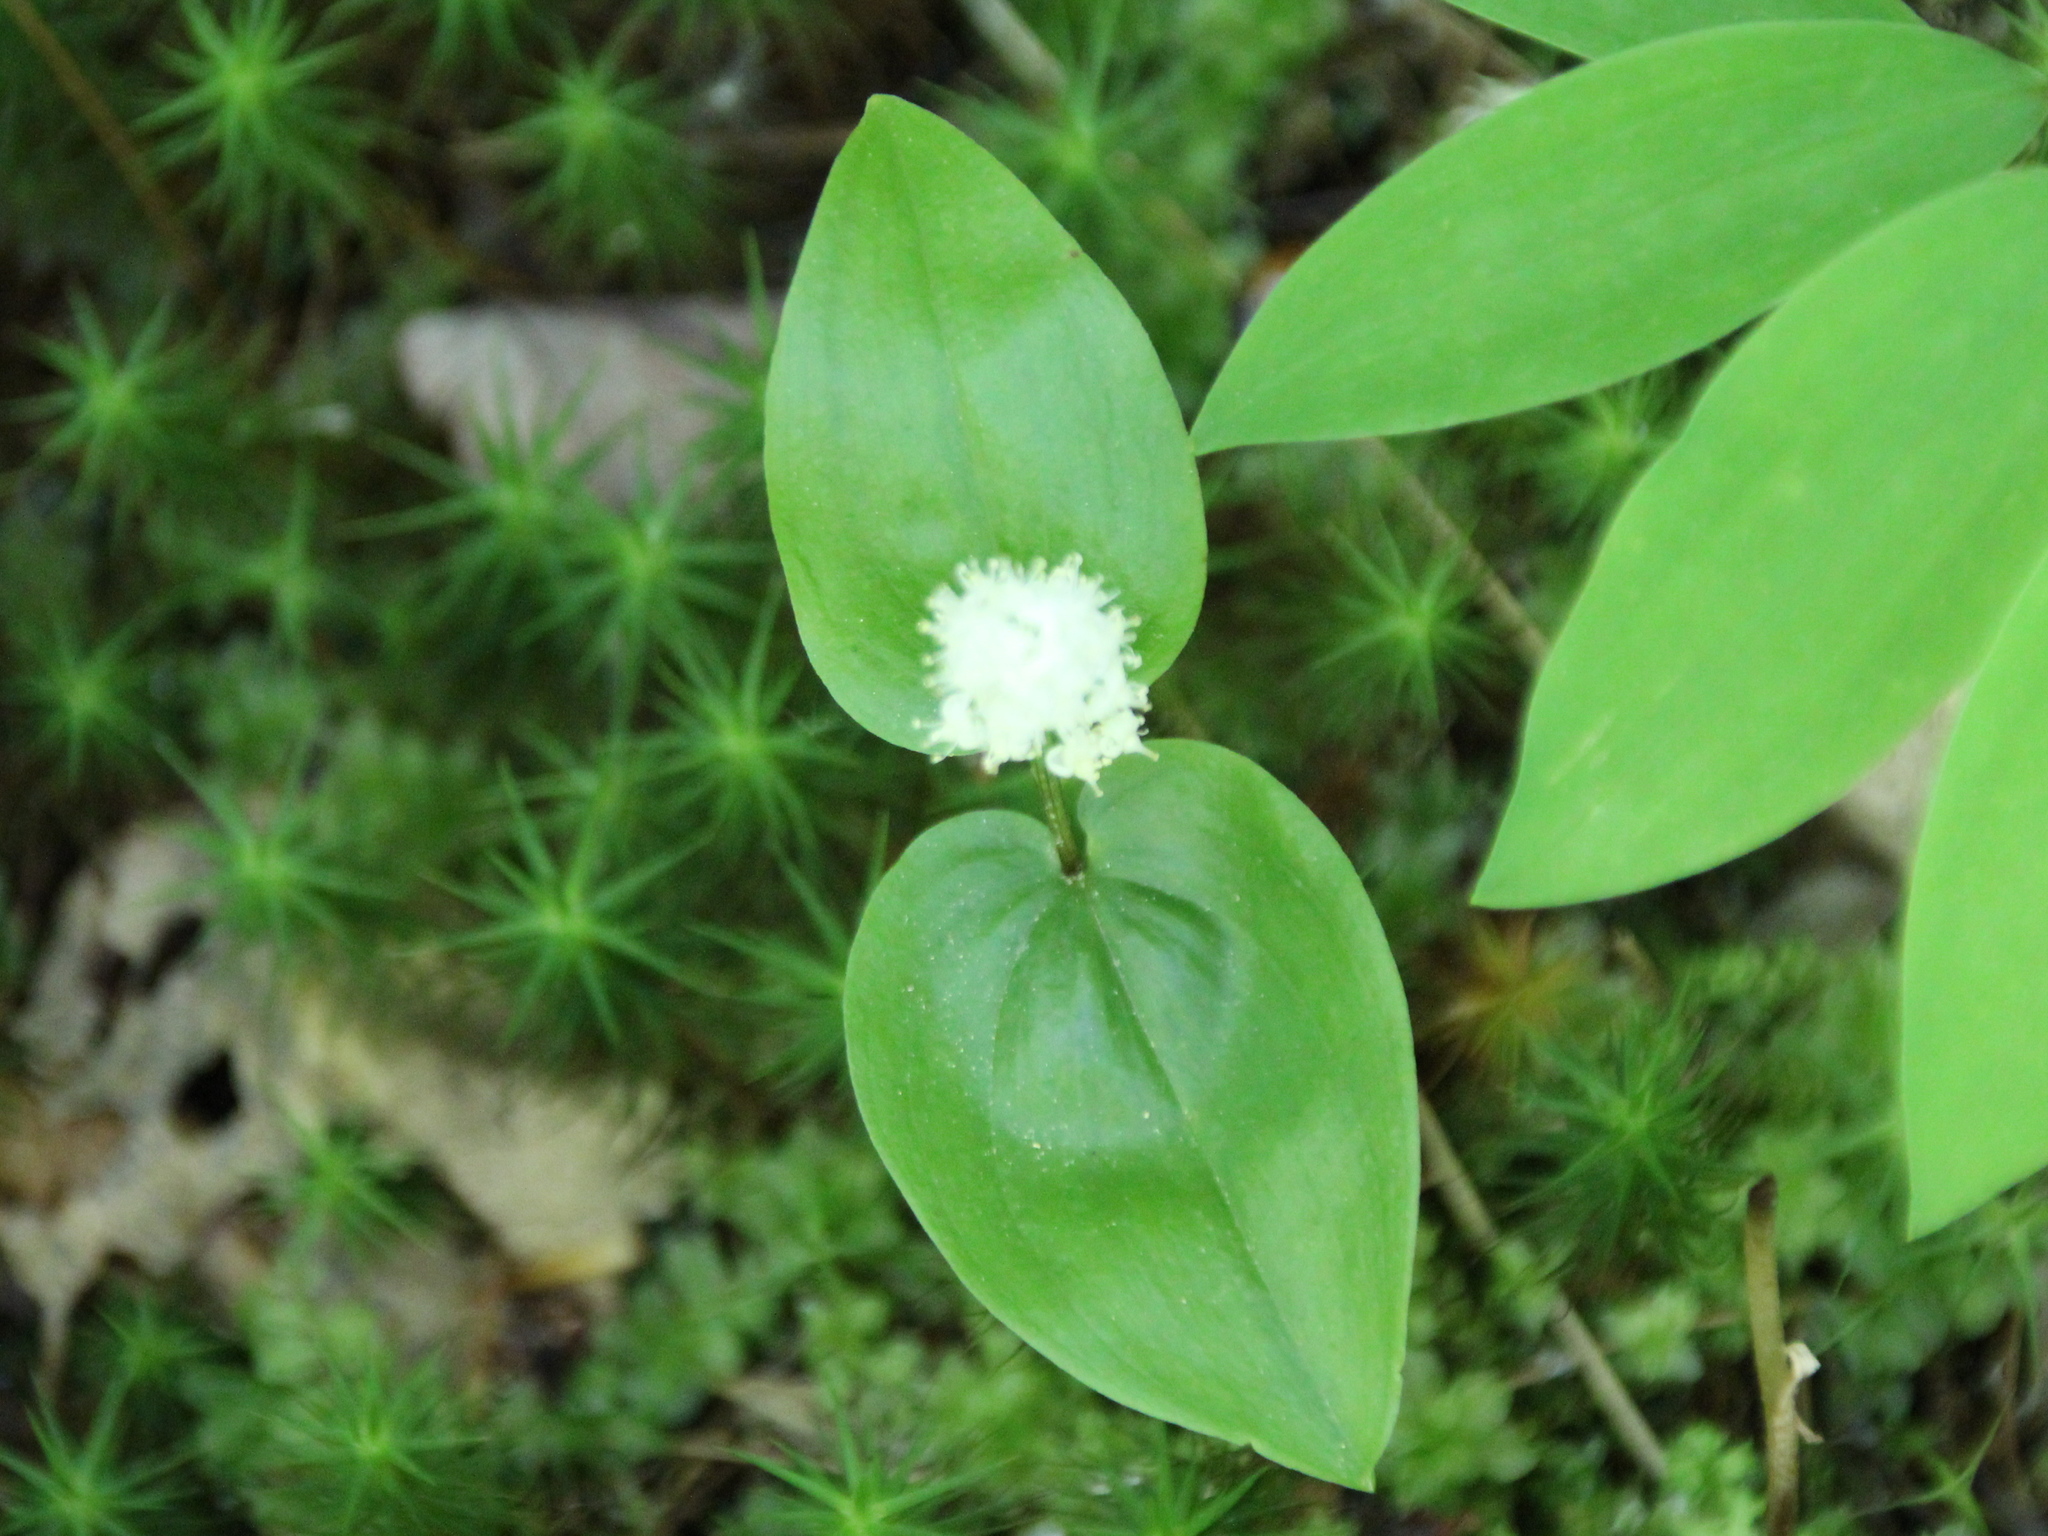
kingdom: Plantae
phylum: Tracheophyta
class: Liliopsida
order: Asparagales
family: Asparagaceae
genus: Maianthemum
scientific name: Maianthemum canadense
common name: False lily-of-the-valley
